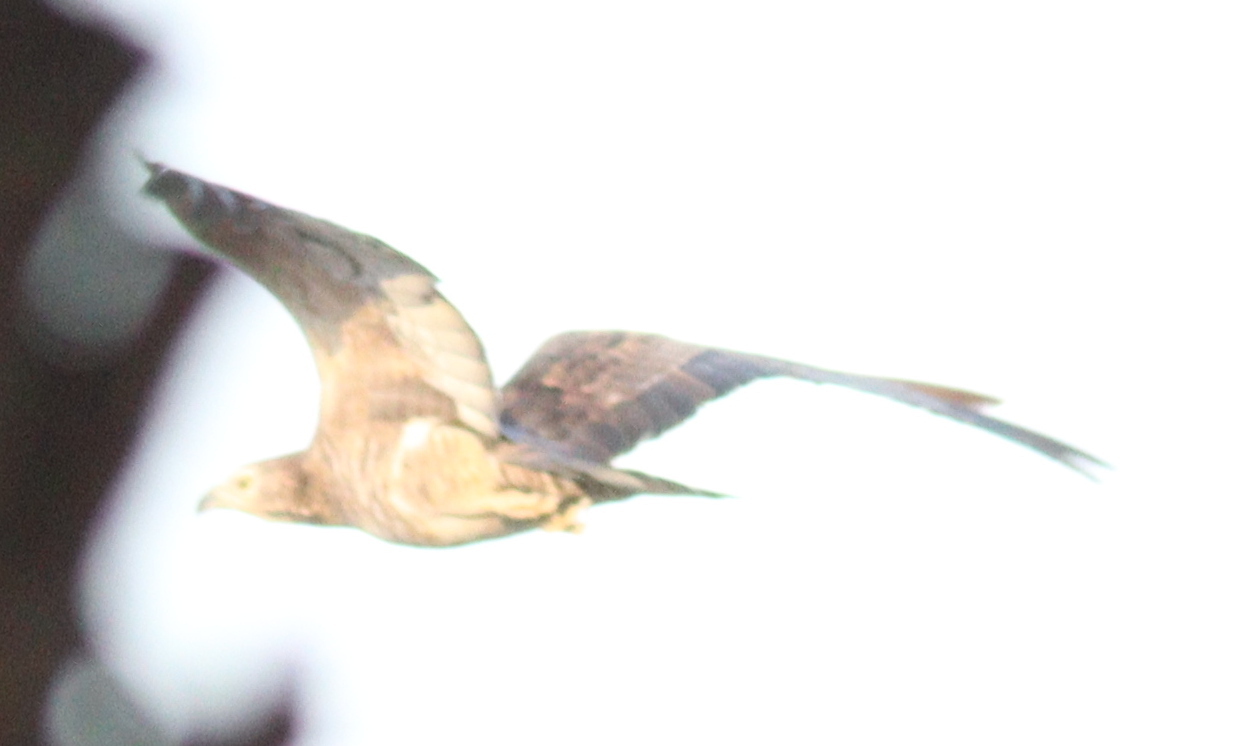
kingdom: Animalia
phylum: Chordata
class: Aves
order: Accipitriformes
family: Accipitridae
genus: Pernis
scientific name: Pernis ptilorhynchus
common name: Crested honey buzzard
